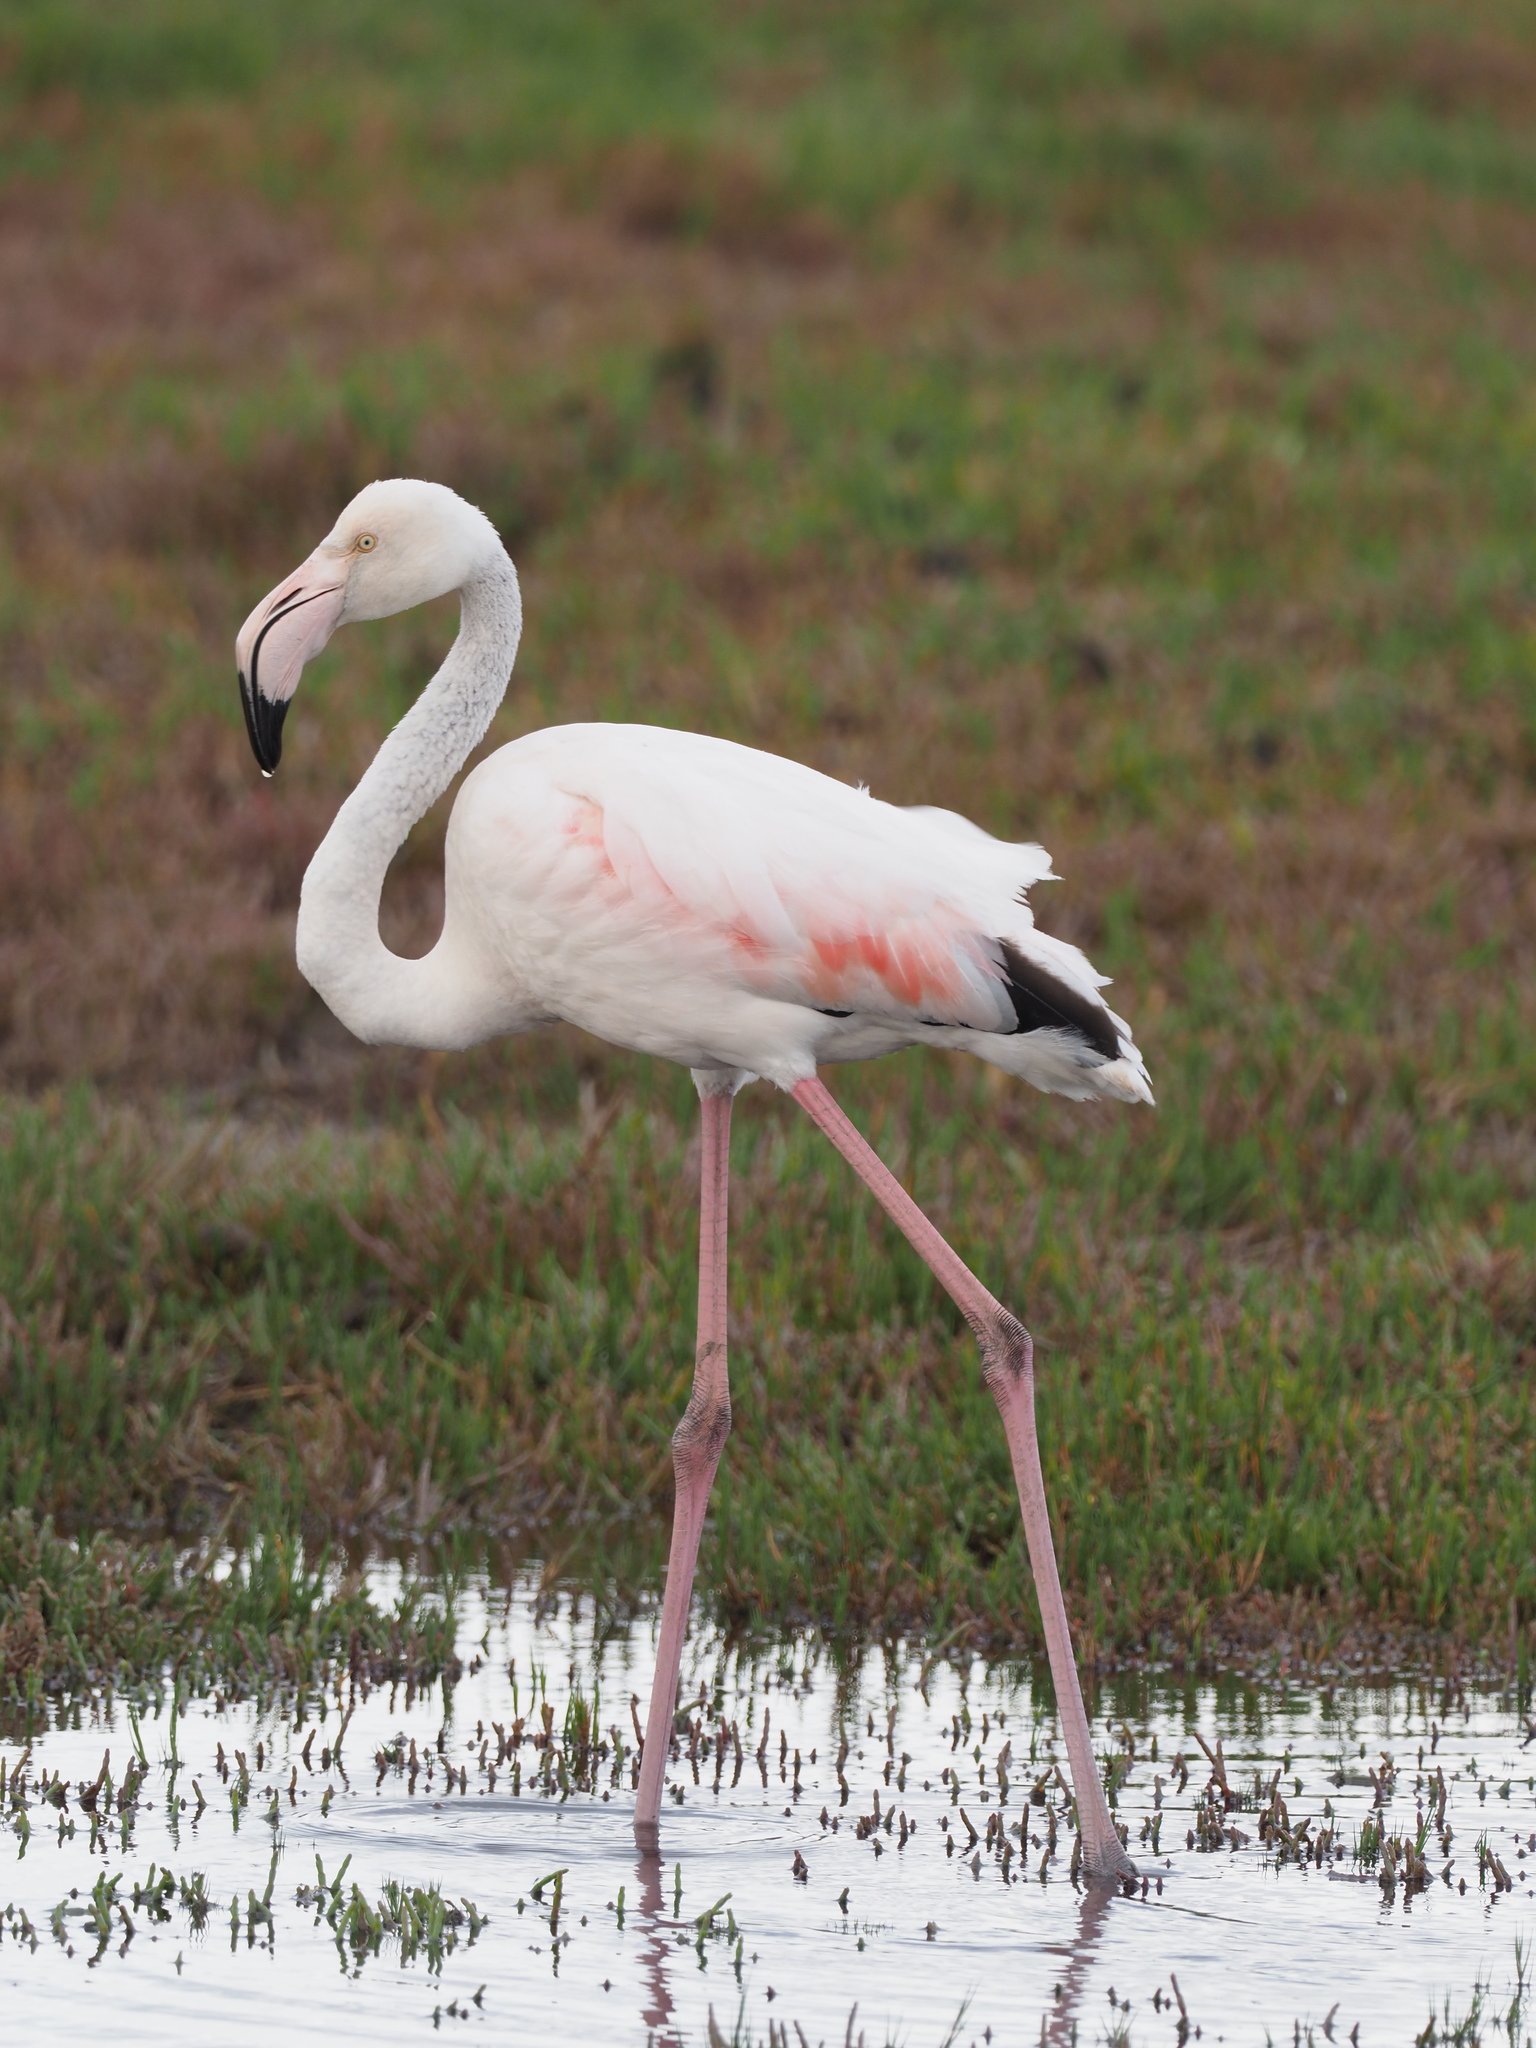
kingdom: Animalia
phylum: Chordata
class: Aves
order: Phoenicopteriformes
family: Phoenicopteridae
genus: Phoenicopterus
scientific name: Phoenicopterus roseus
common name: Greater flamingo
